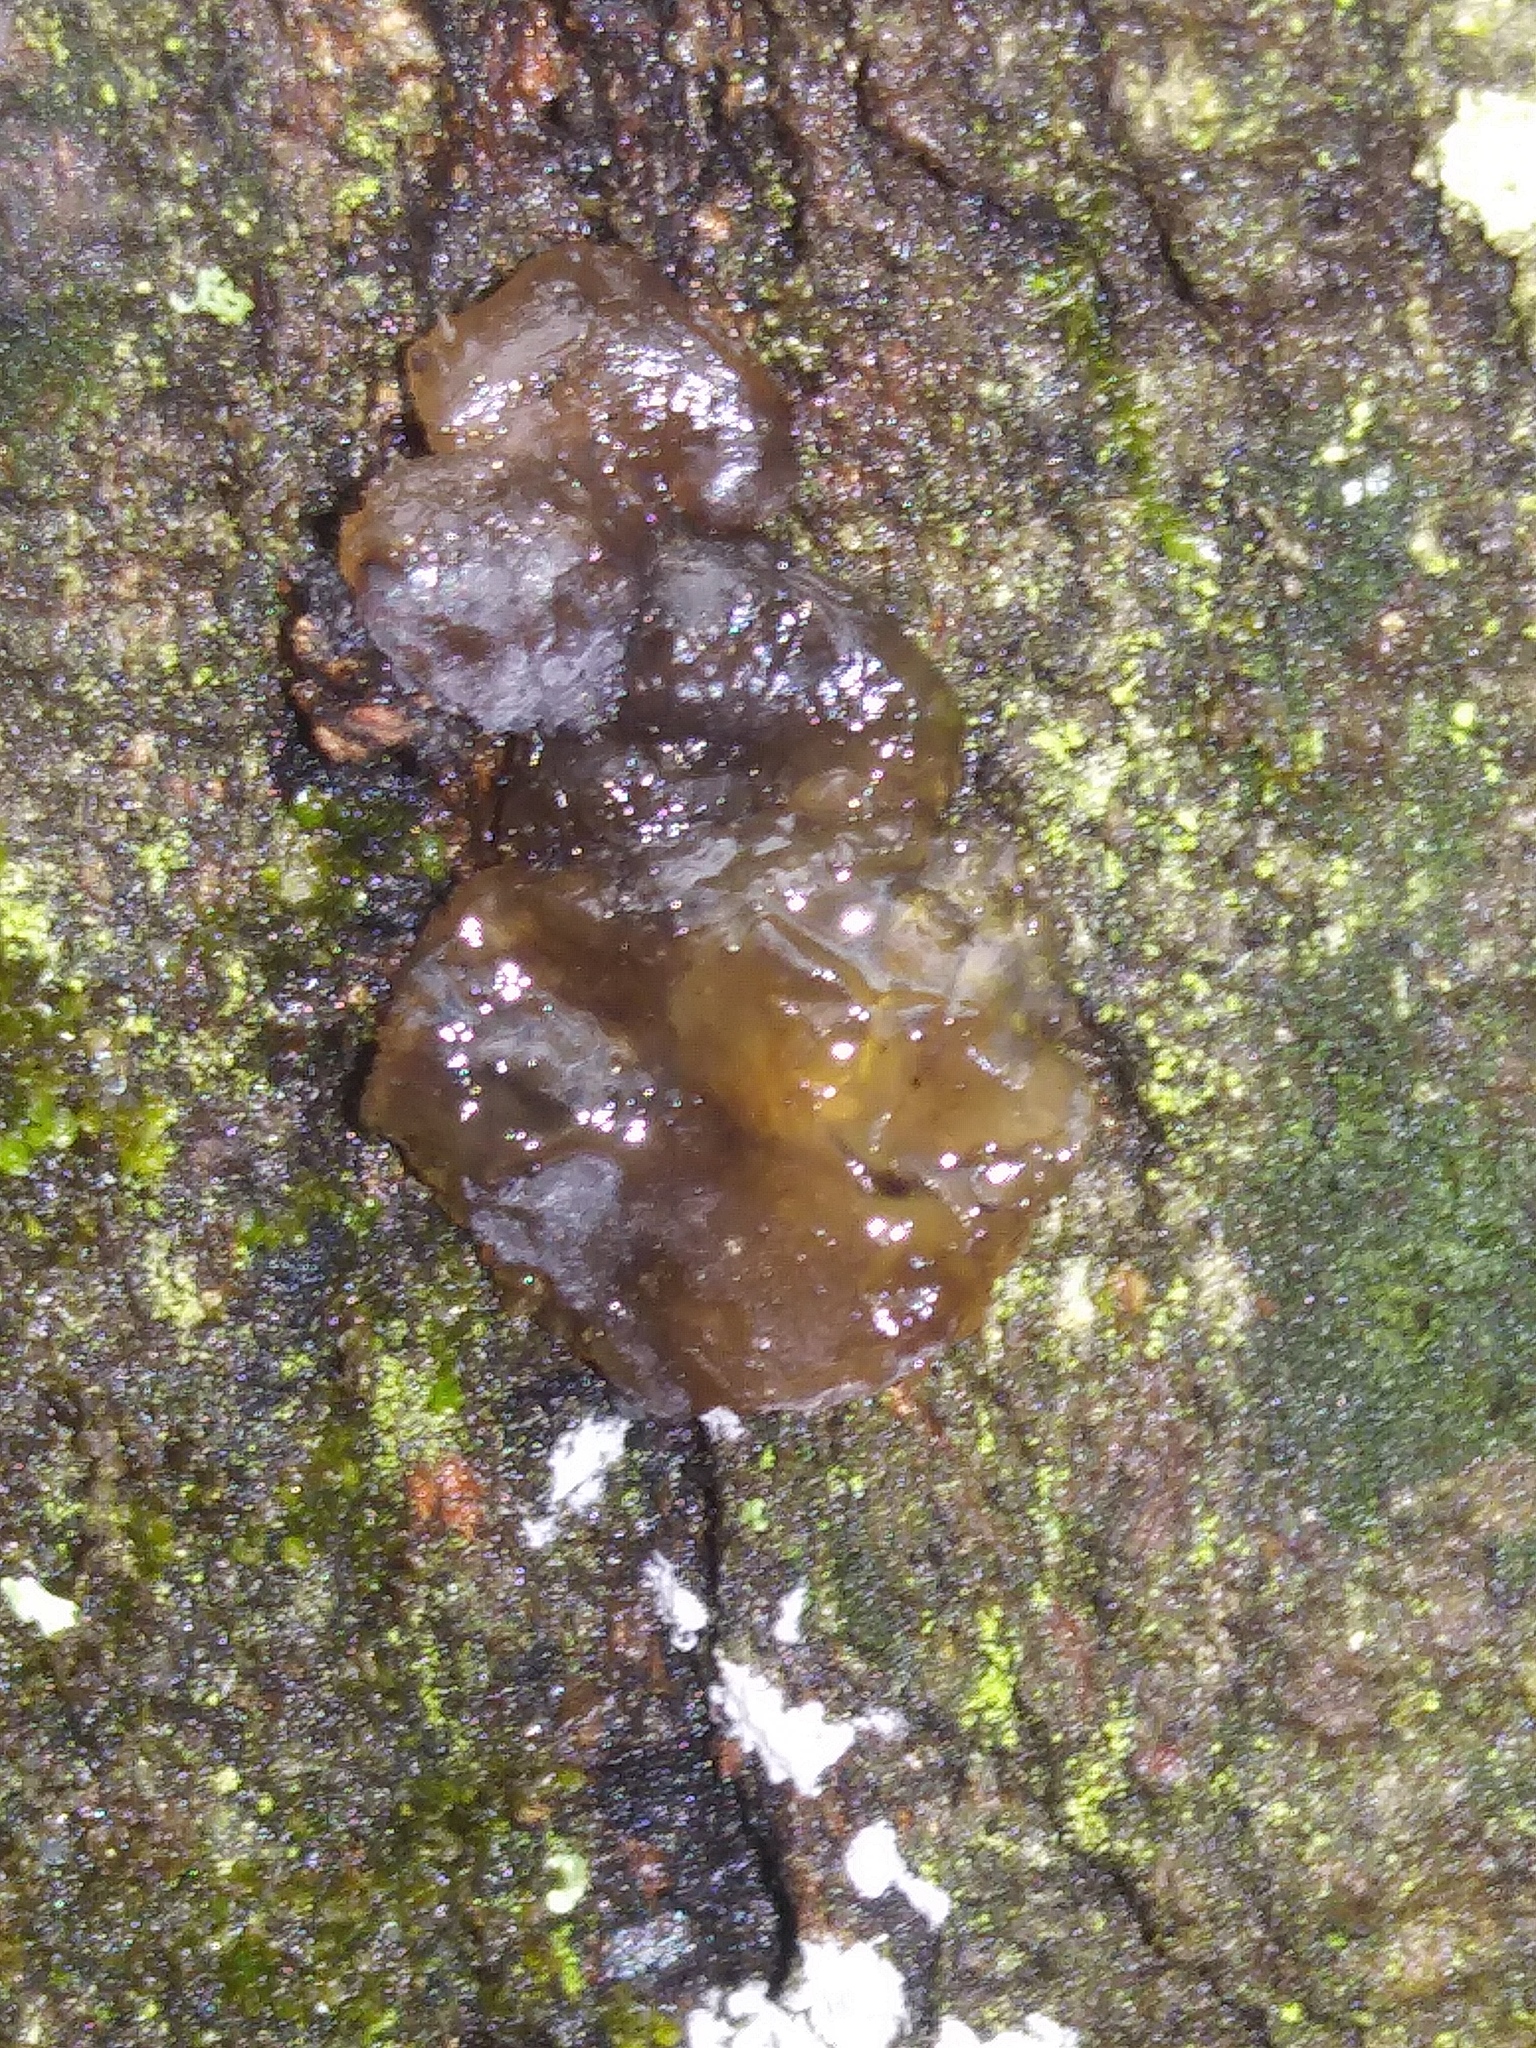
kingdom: Fungi
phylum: Basidiomycota
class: Agaricomycetes
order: Auriculariales
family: Auriculariaceae
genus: Exidia
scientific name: Exidia
